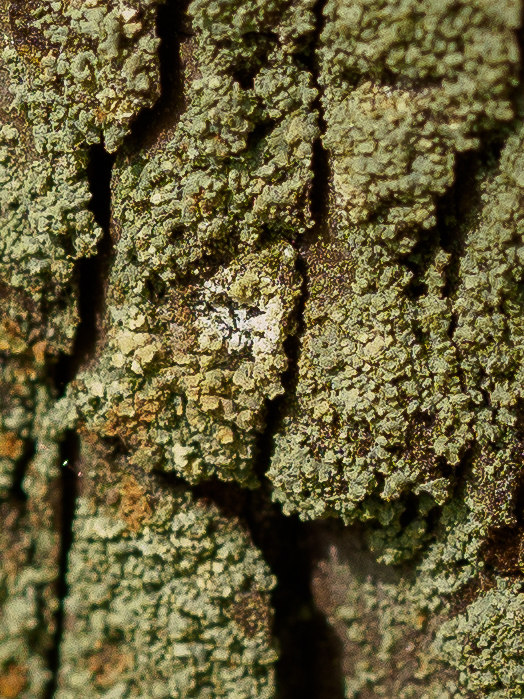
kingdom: Fungi
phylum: Ascomycota
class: Lecanoromycetes
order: Umbilicariales
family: Ophioparmaceae
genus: Hypocenomyce
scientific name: Hypocenomyce scalaris
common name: Common clam lichen
